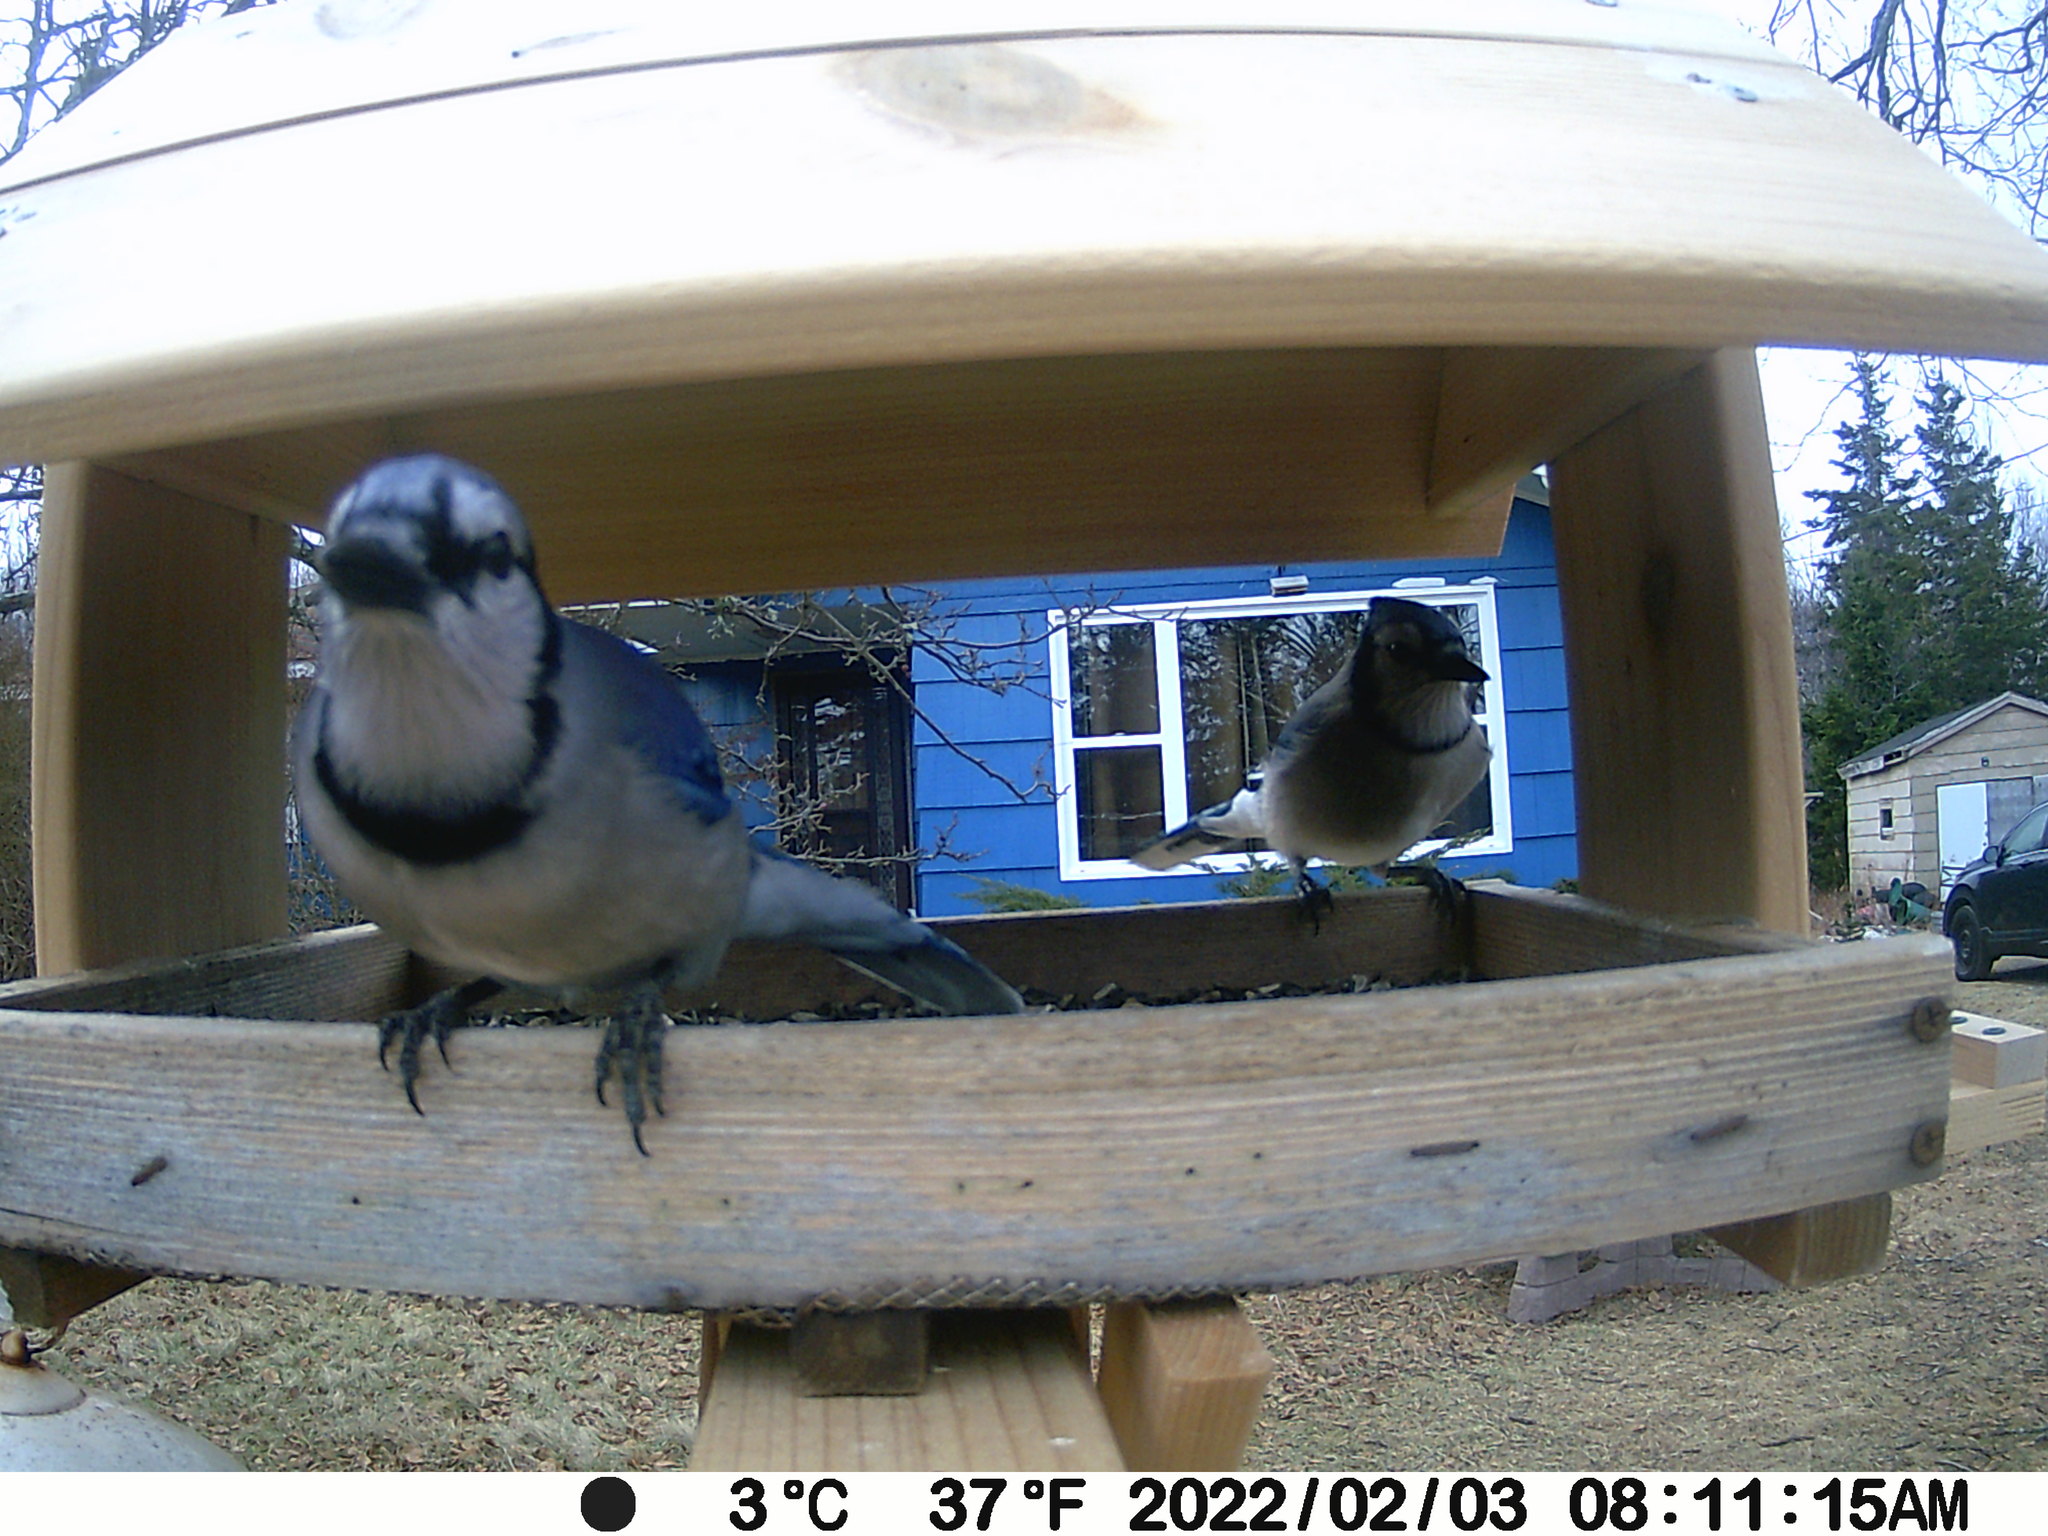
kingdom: Animalia
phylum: Chordata
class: Aves
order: Passeriformes
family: Corvidae
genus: Cyanocitta
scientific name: Cyanocitta cristata
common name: Blue jay
